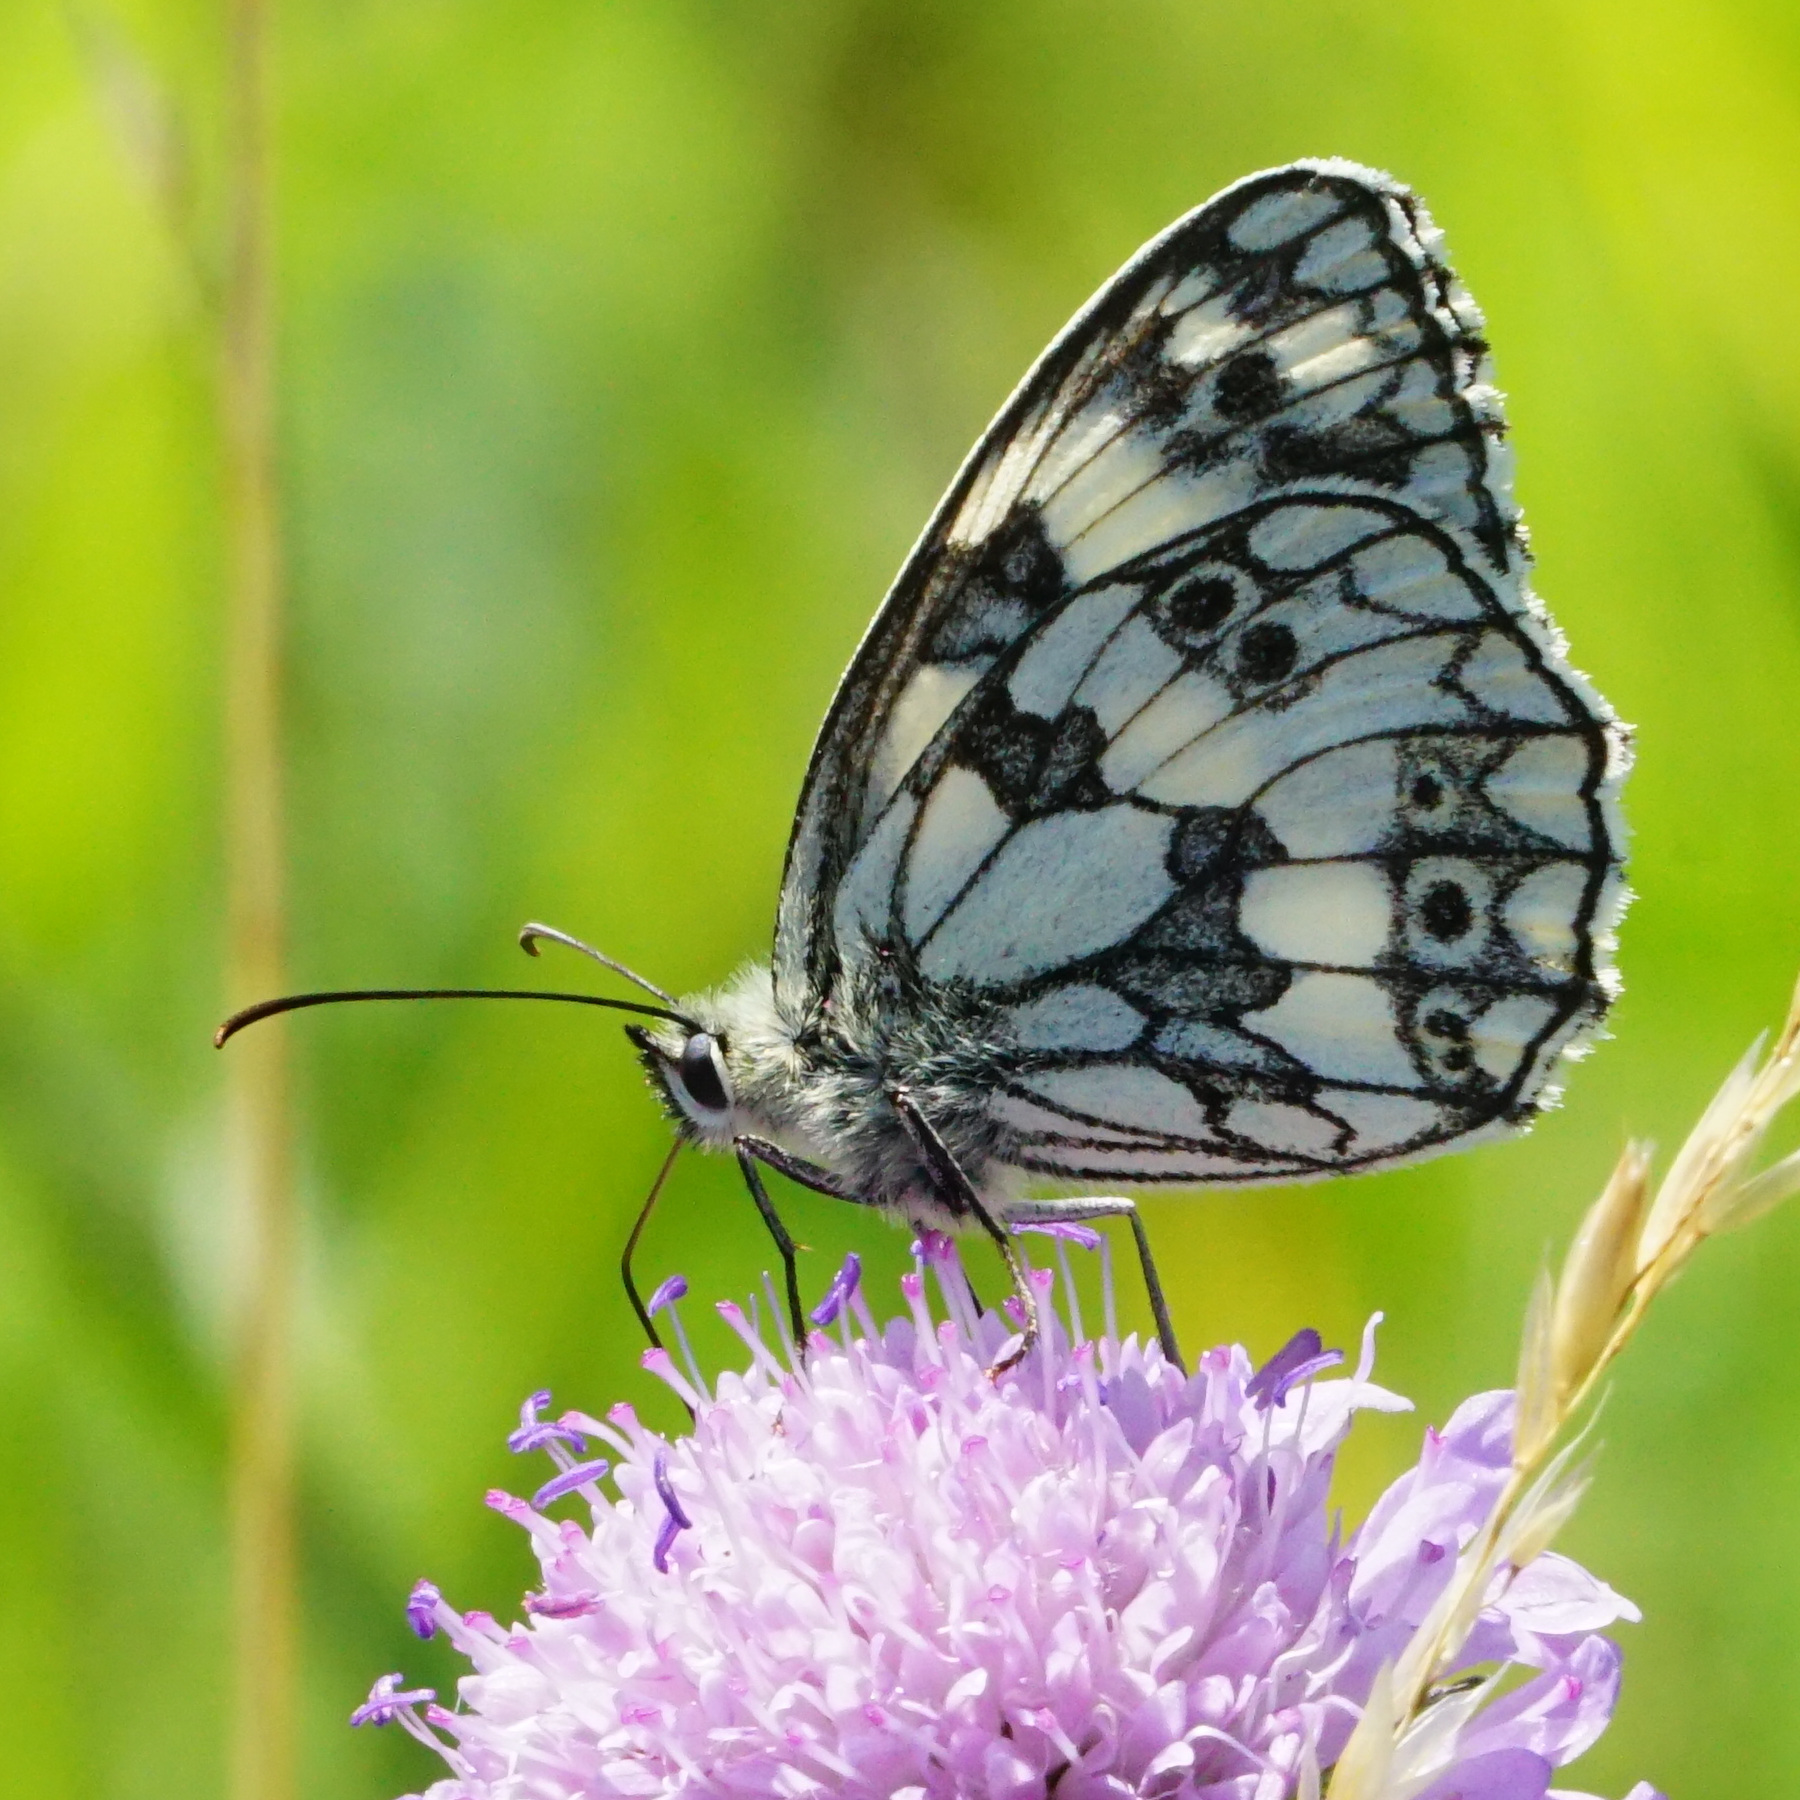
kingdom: Animalia
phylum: Arthropoda
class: Insecta
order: Lepidoptera
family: Nymphalidae
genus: Melanargia
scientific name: Melanargia galathea
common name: Marbled white
